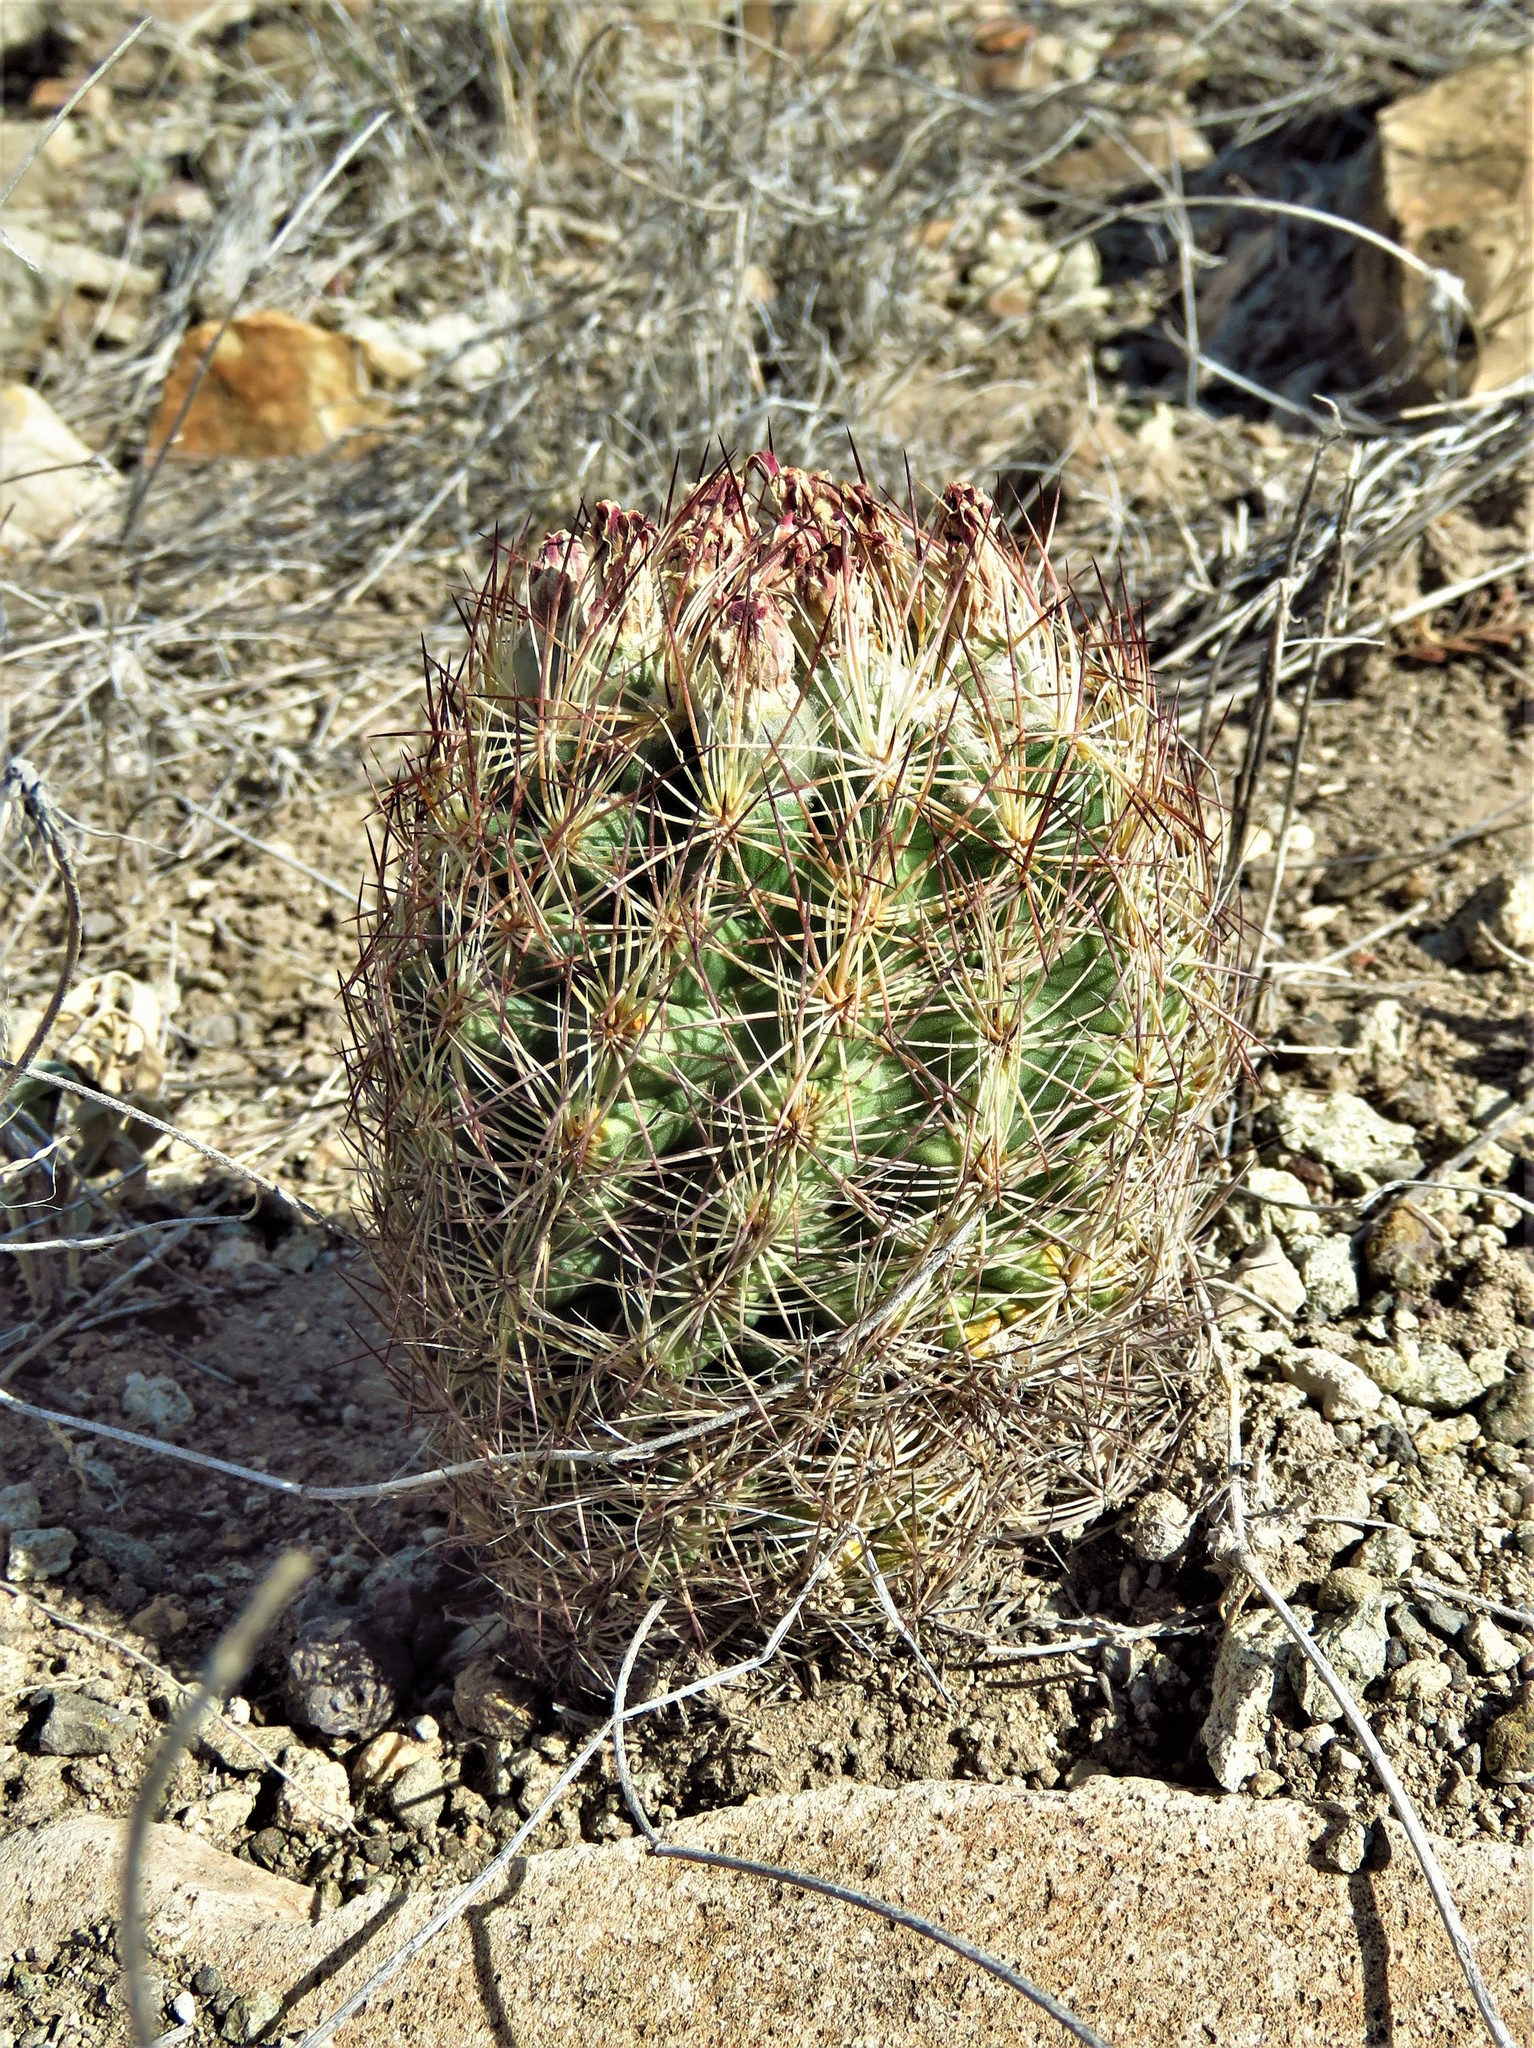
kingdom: Plantae
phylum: Tracheophyta
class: Magnoliopsida
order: Caryophyllales
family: Cactaceae
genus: Sclerocactus
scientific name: Sclerocactus intertextus
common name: White fish-hook cactus
